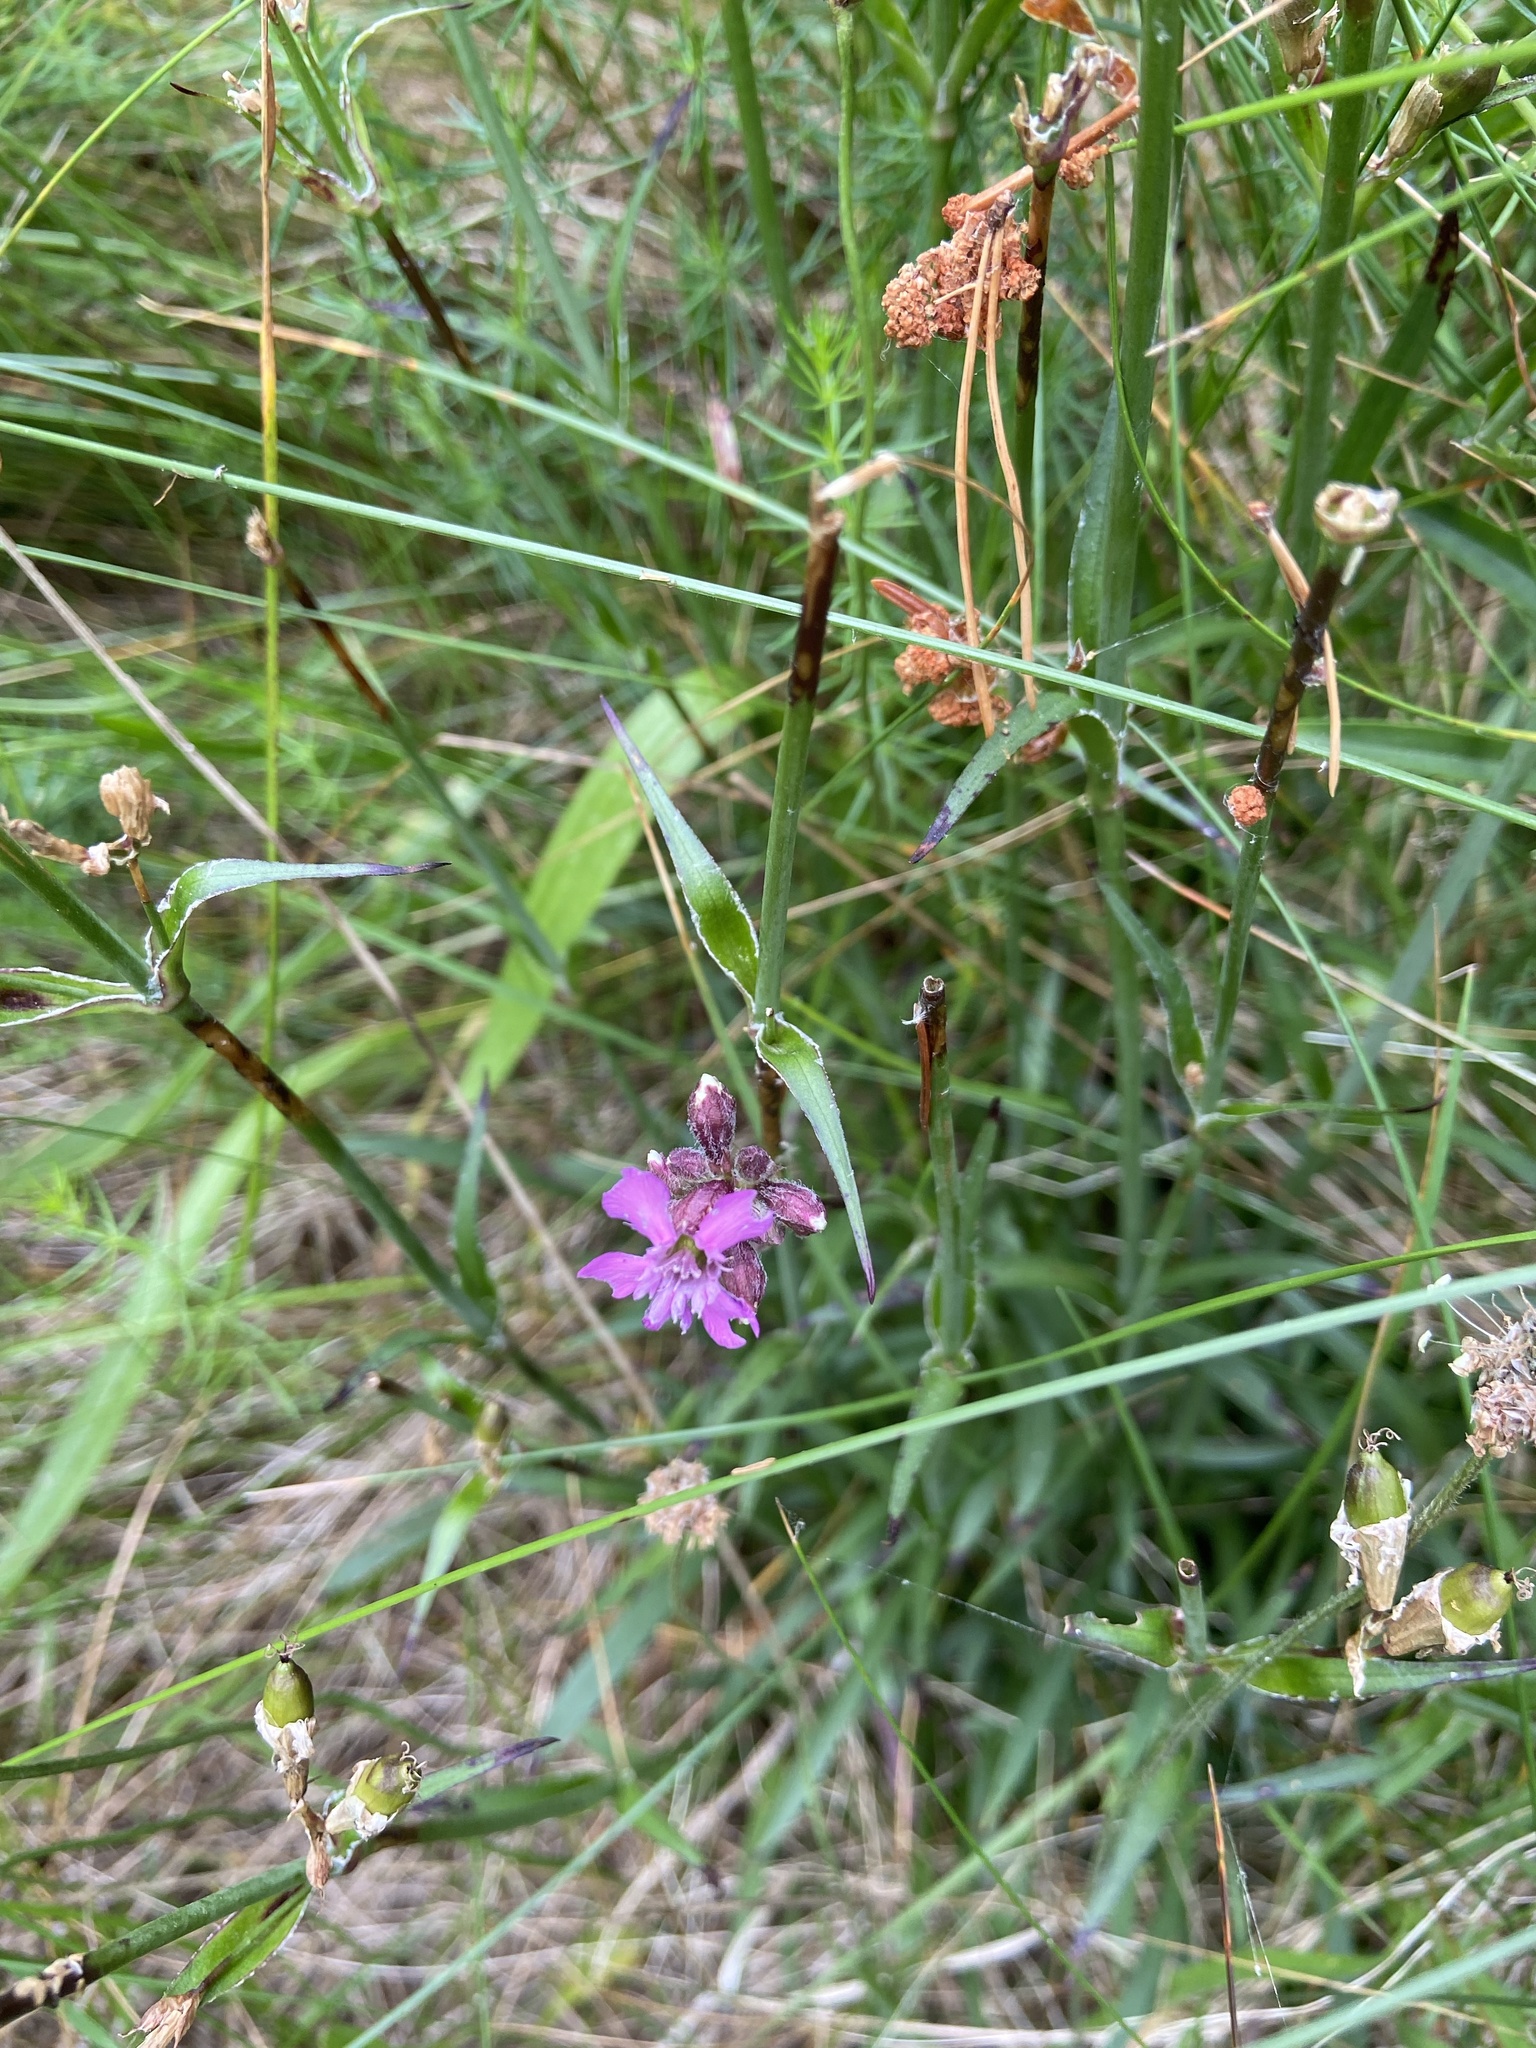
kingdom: Plantae
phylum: Tracheophyta
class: Magnoliopsida
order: Caryophyllales
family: Caryophyllaceae
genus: Viscaria
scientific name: Viscaria vulgaris
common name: Clammy campion
